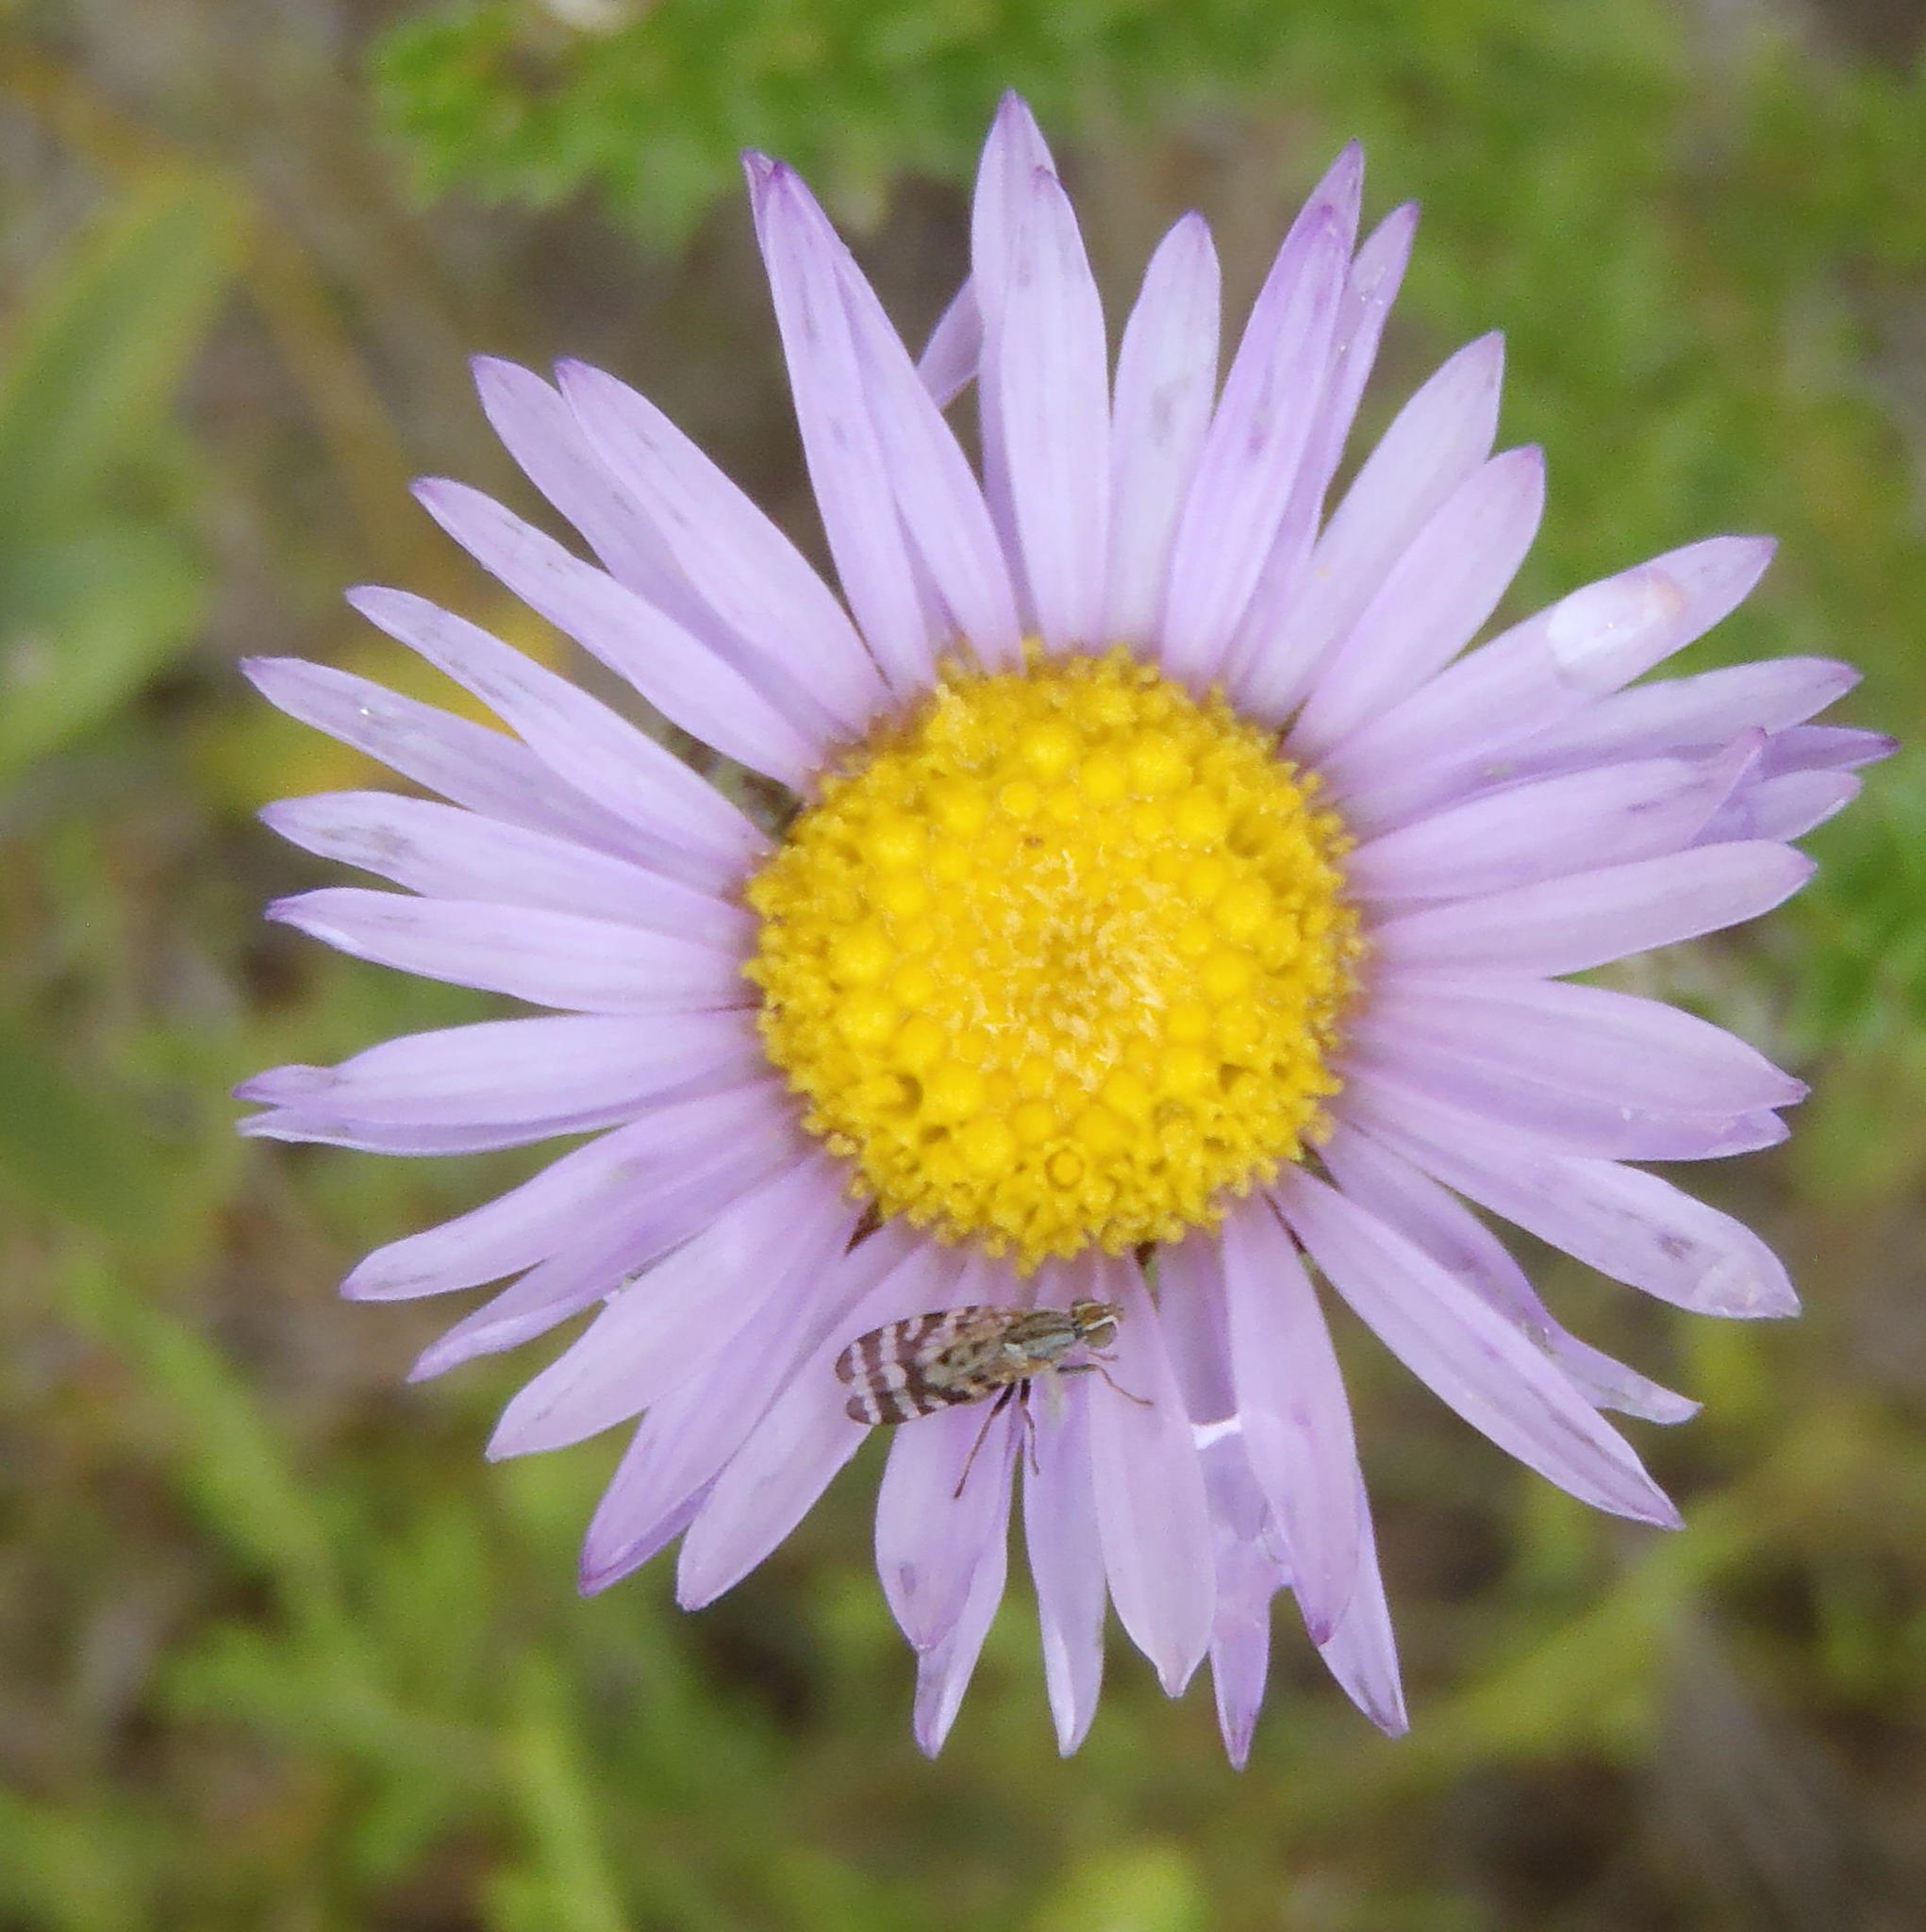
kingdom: Plantae
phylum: Tracheophyta
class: Magnoliopsida
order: Asterales
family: Asteraceae
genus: Felicia
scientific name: Felicia echinata
